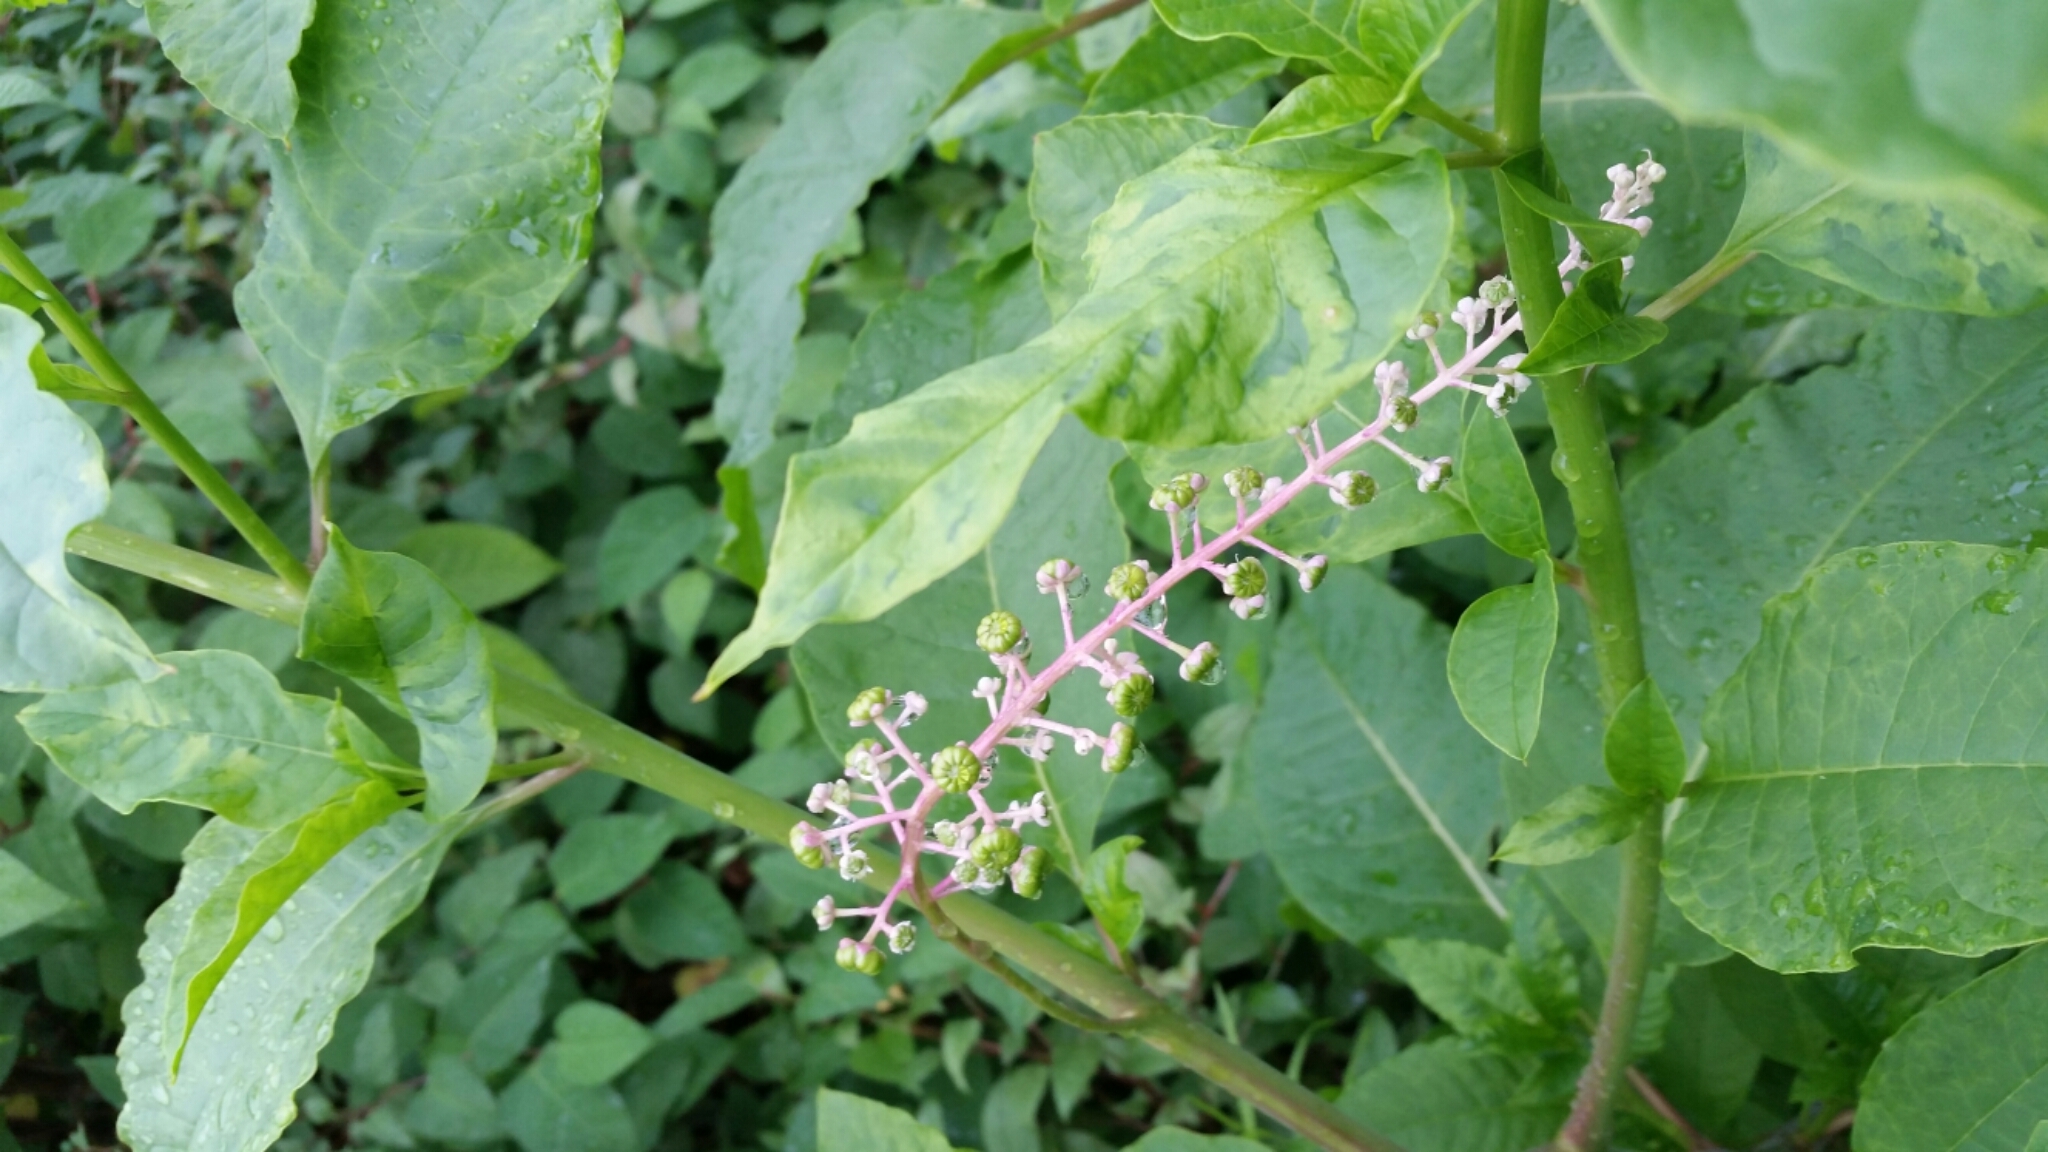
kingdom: Plantae
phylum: Tracheophyta
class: Magnoliopsida
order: Caryophyllales
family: Phytolaccaceae
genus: Phytolacca
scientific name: Phytolacca americana
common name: American pokeweed
